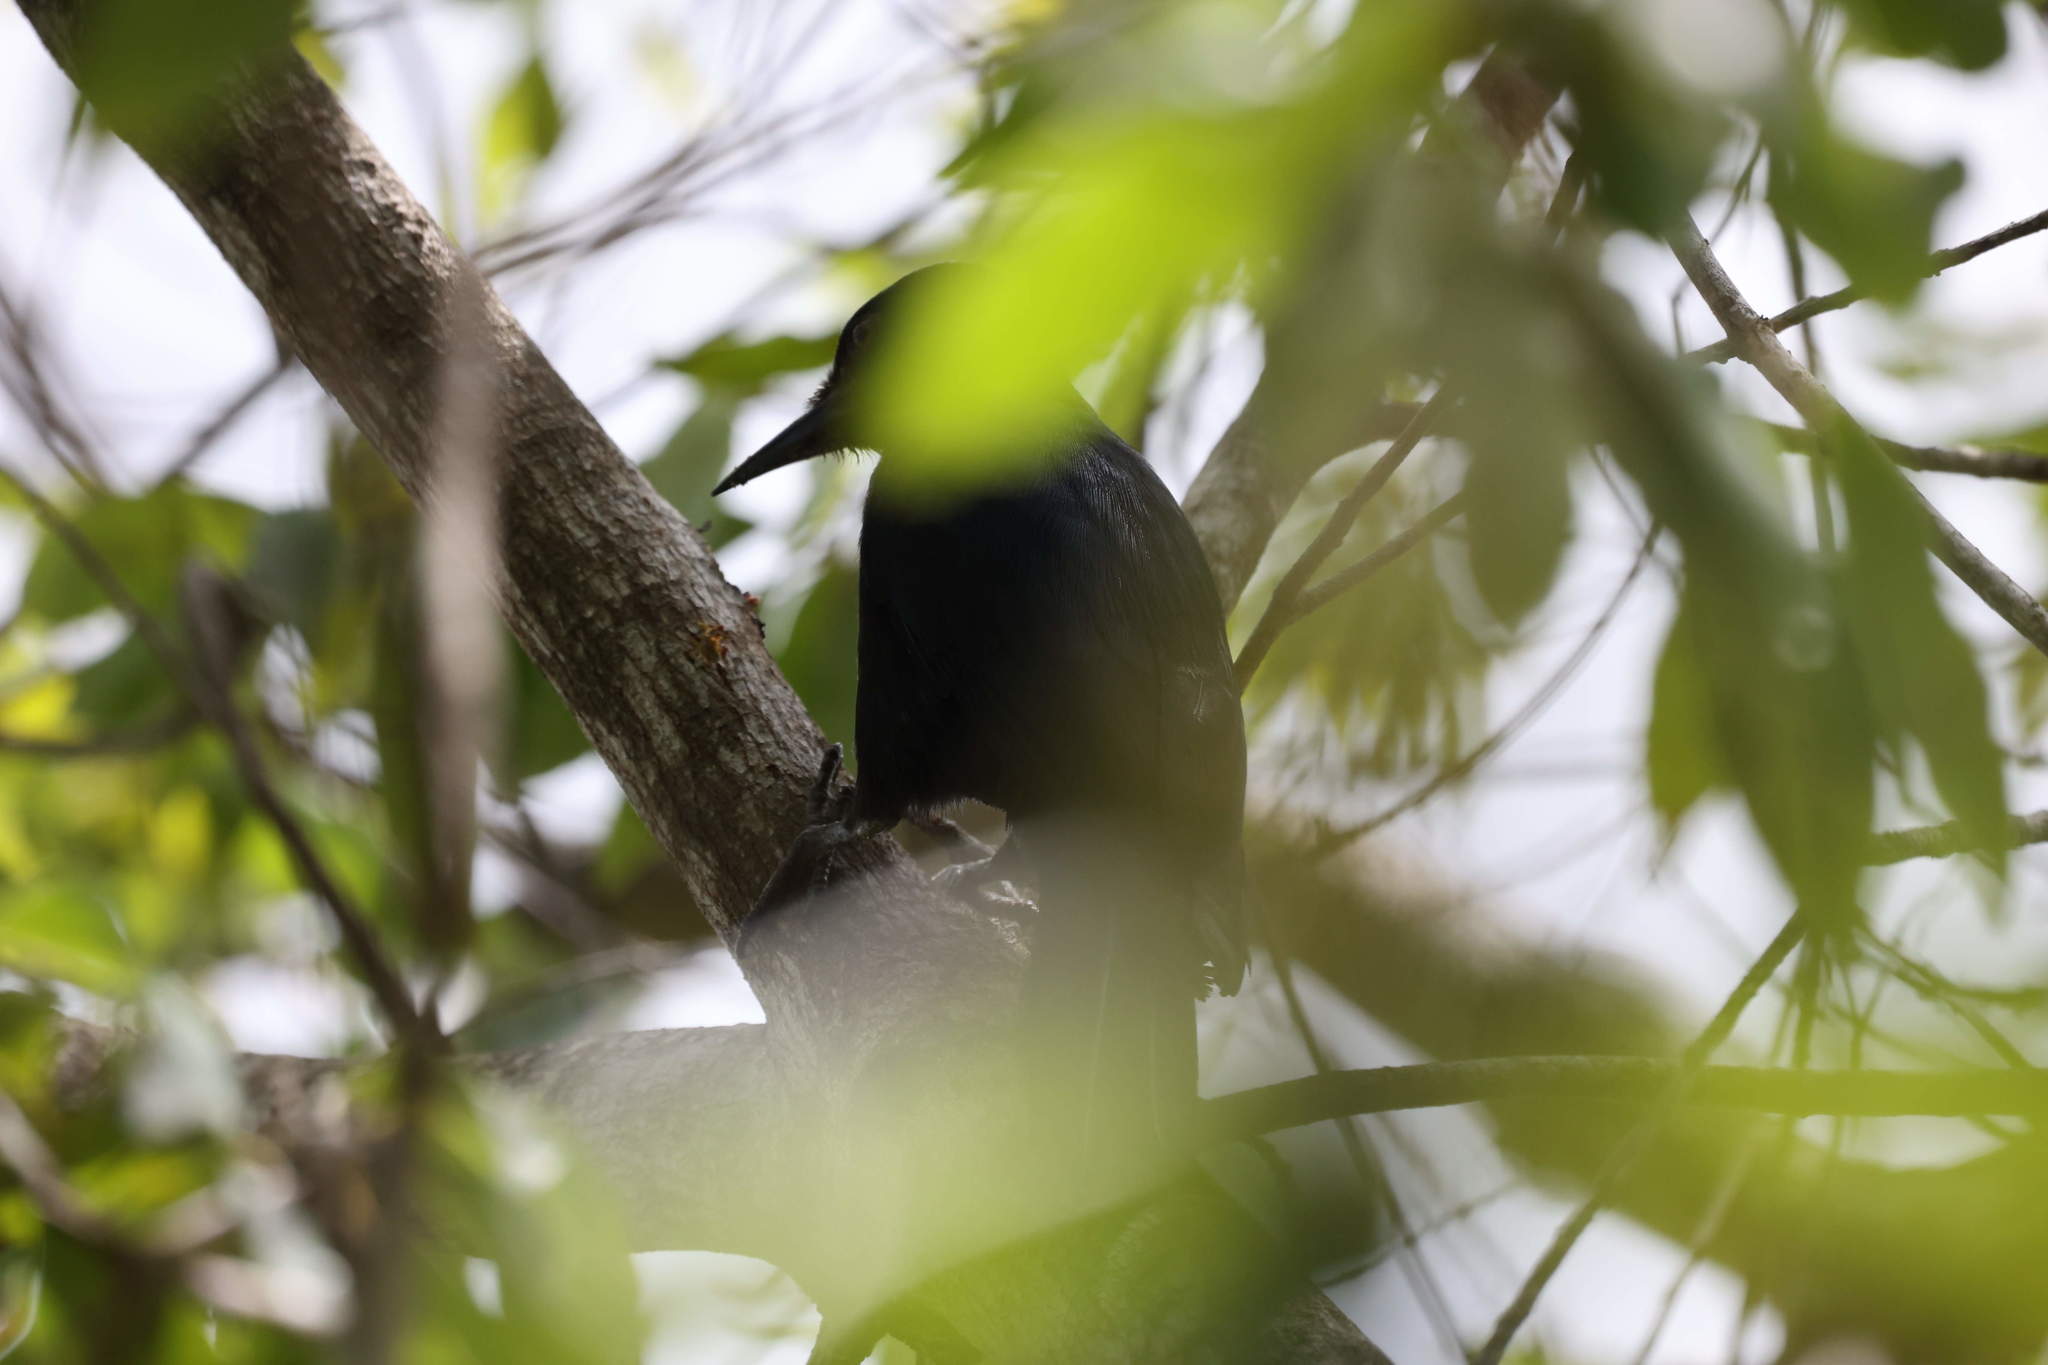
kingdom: Animalia
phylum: Chordata
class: Aves
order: Piciformes
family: Picidae
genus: Melanerpes
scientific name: Melanerpes herminieri
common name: Guadeloupe woodpecker
